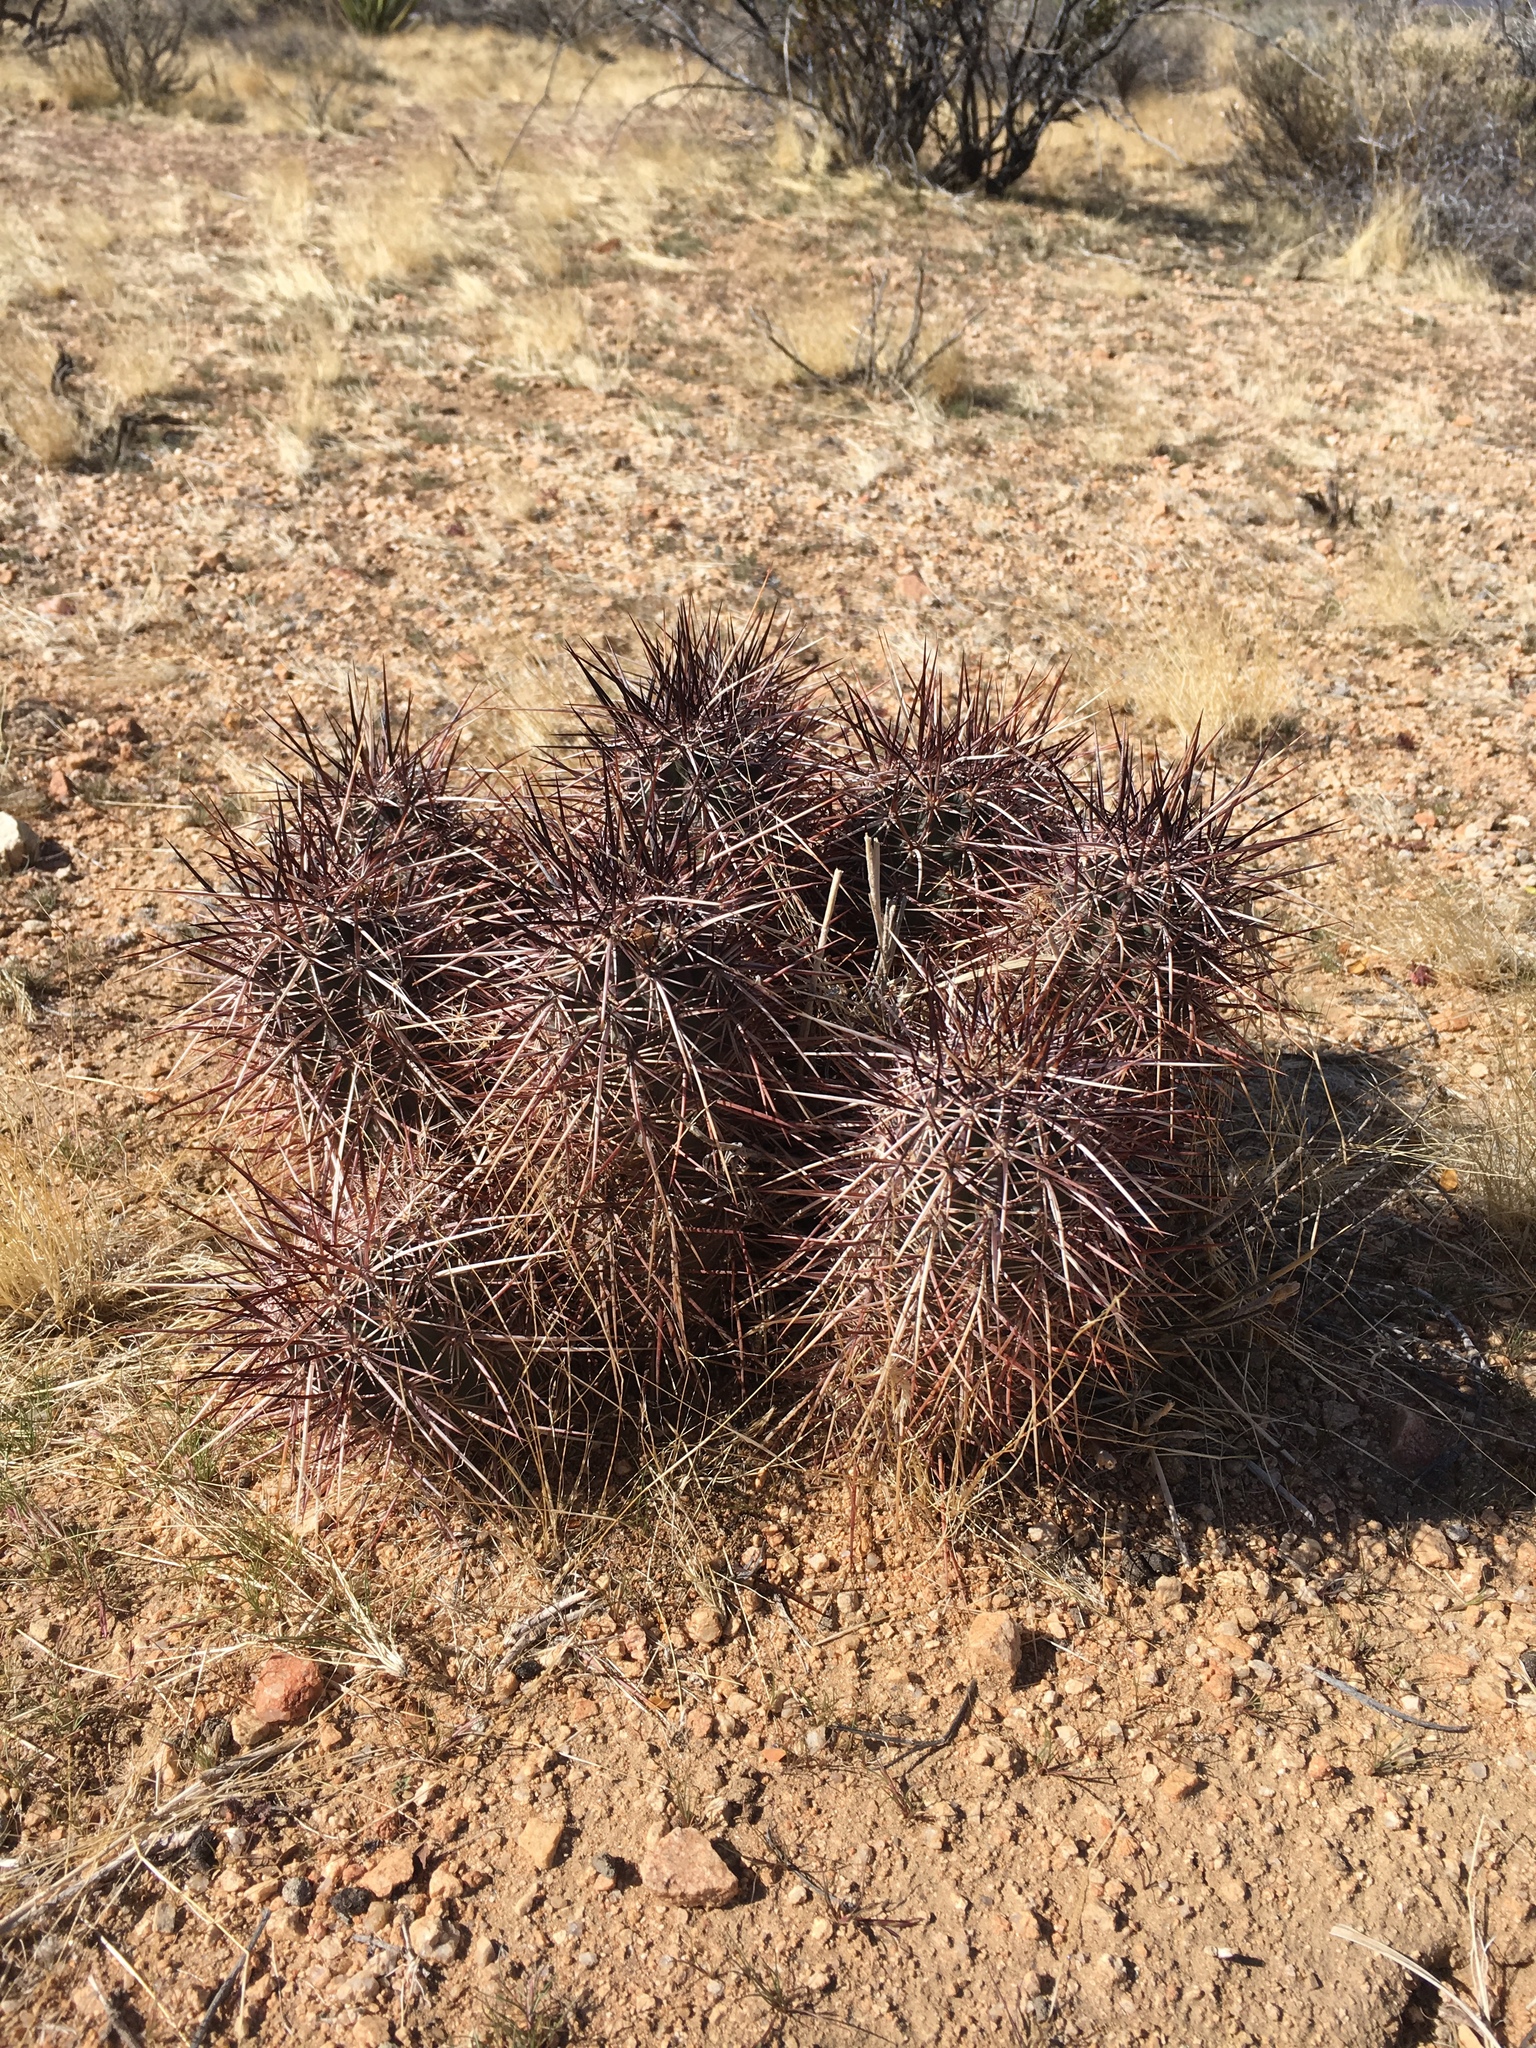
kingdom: Plantae
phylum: Tracheophyta
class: Magnoliopsida
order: Caryophyllales
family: Cactaceae
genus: Echinocereus
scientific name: Echinocereus engelmannii
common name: Engelmann's hedgehog cactus
